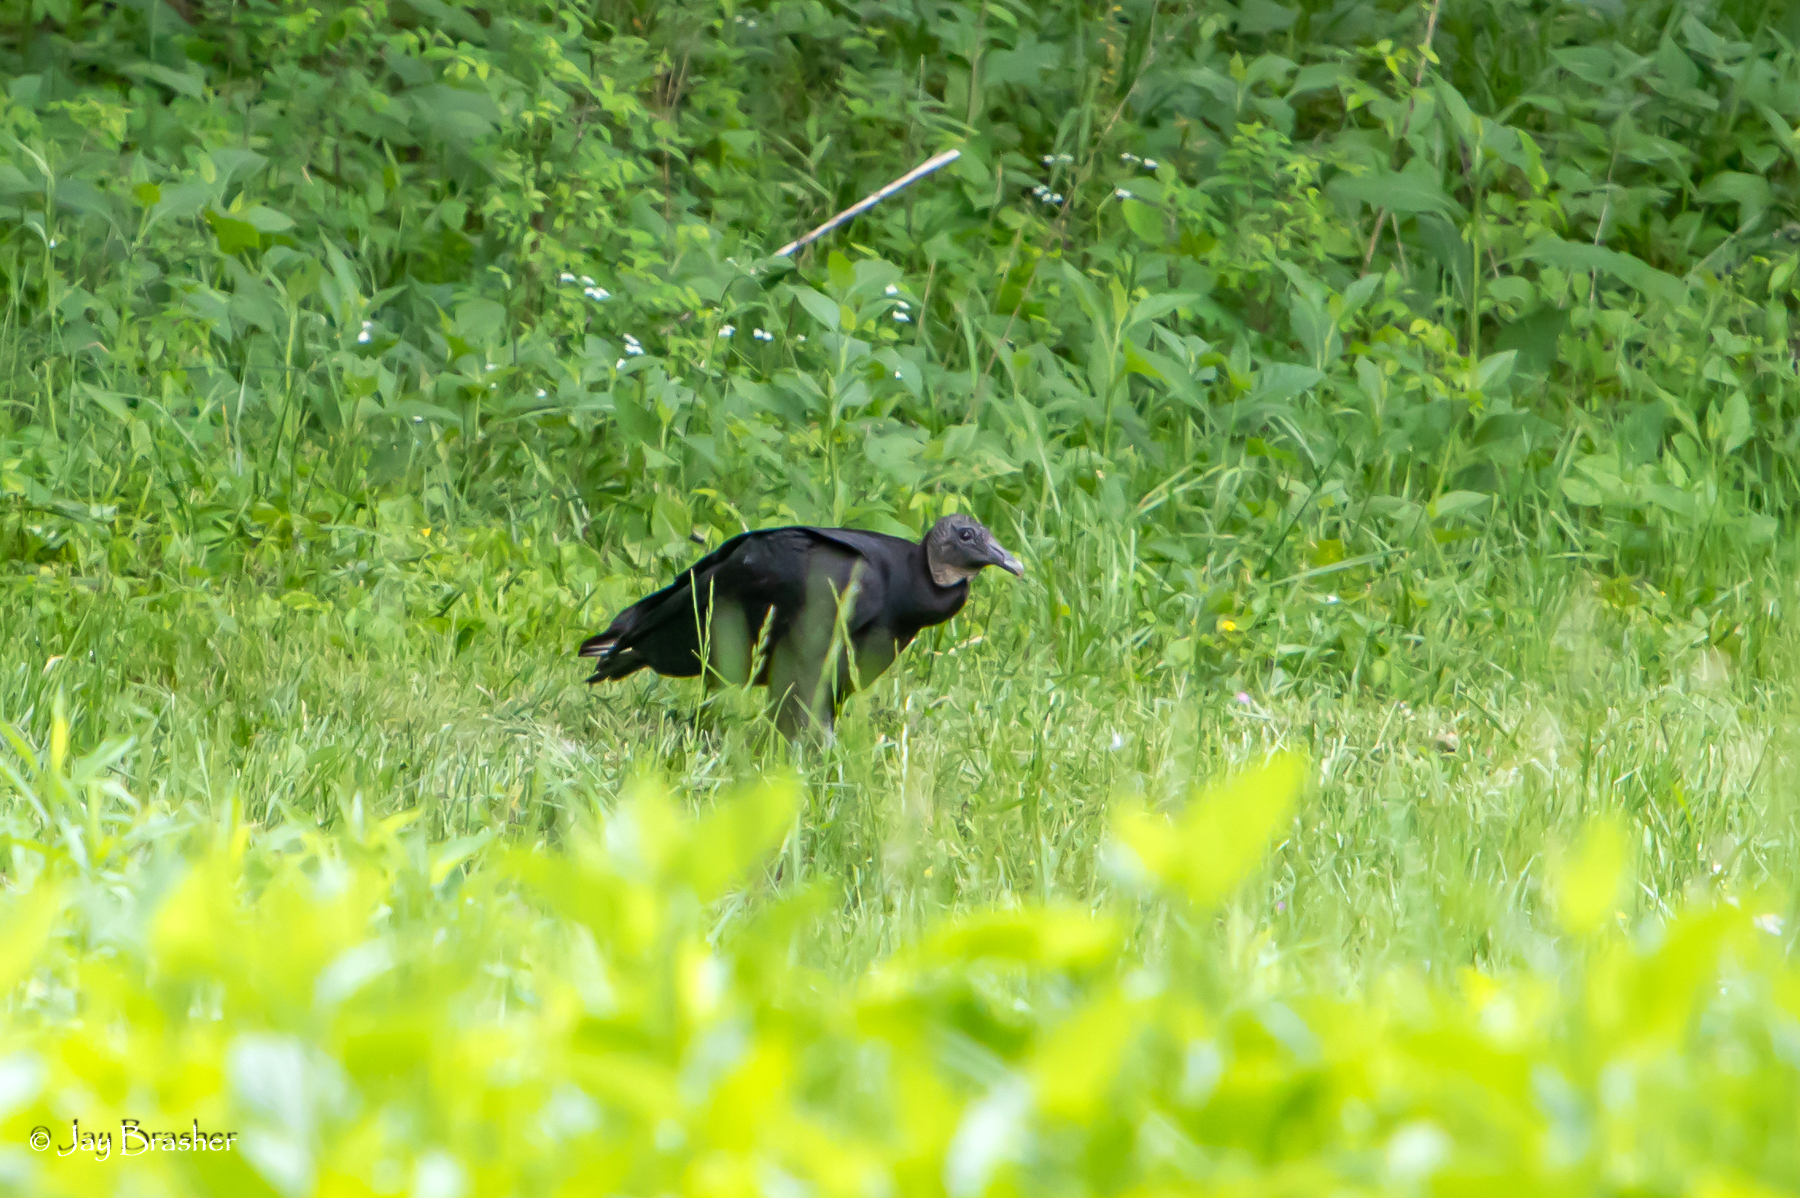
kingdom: Animalia
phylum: Chordata
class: Aves
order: Accipitriformes
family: Cathartidae
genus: Coragyps
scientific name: Coragyps atratus
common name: Black vulture
